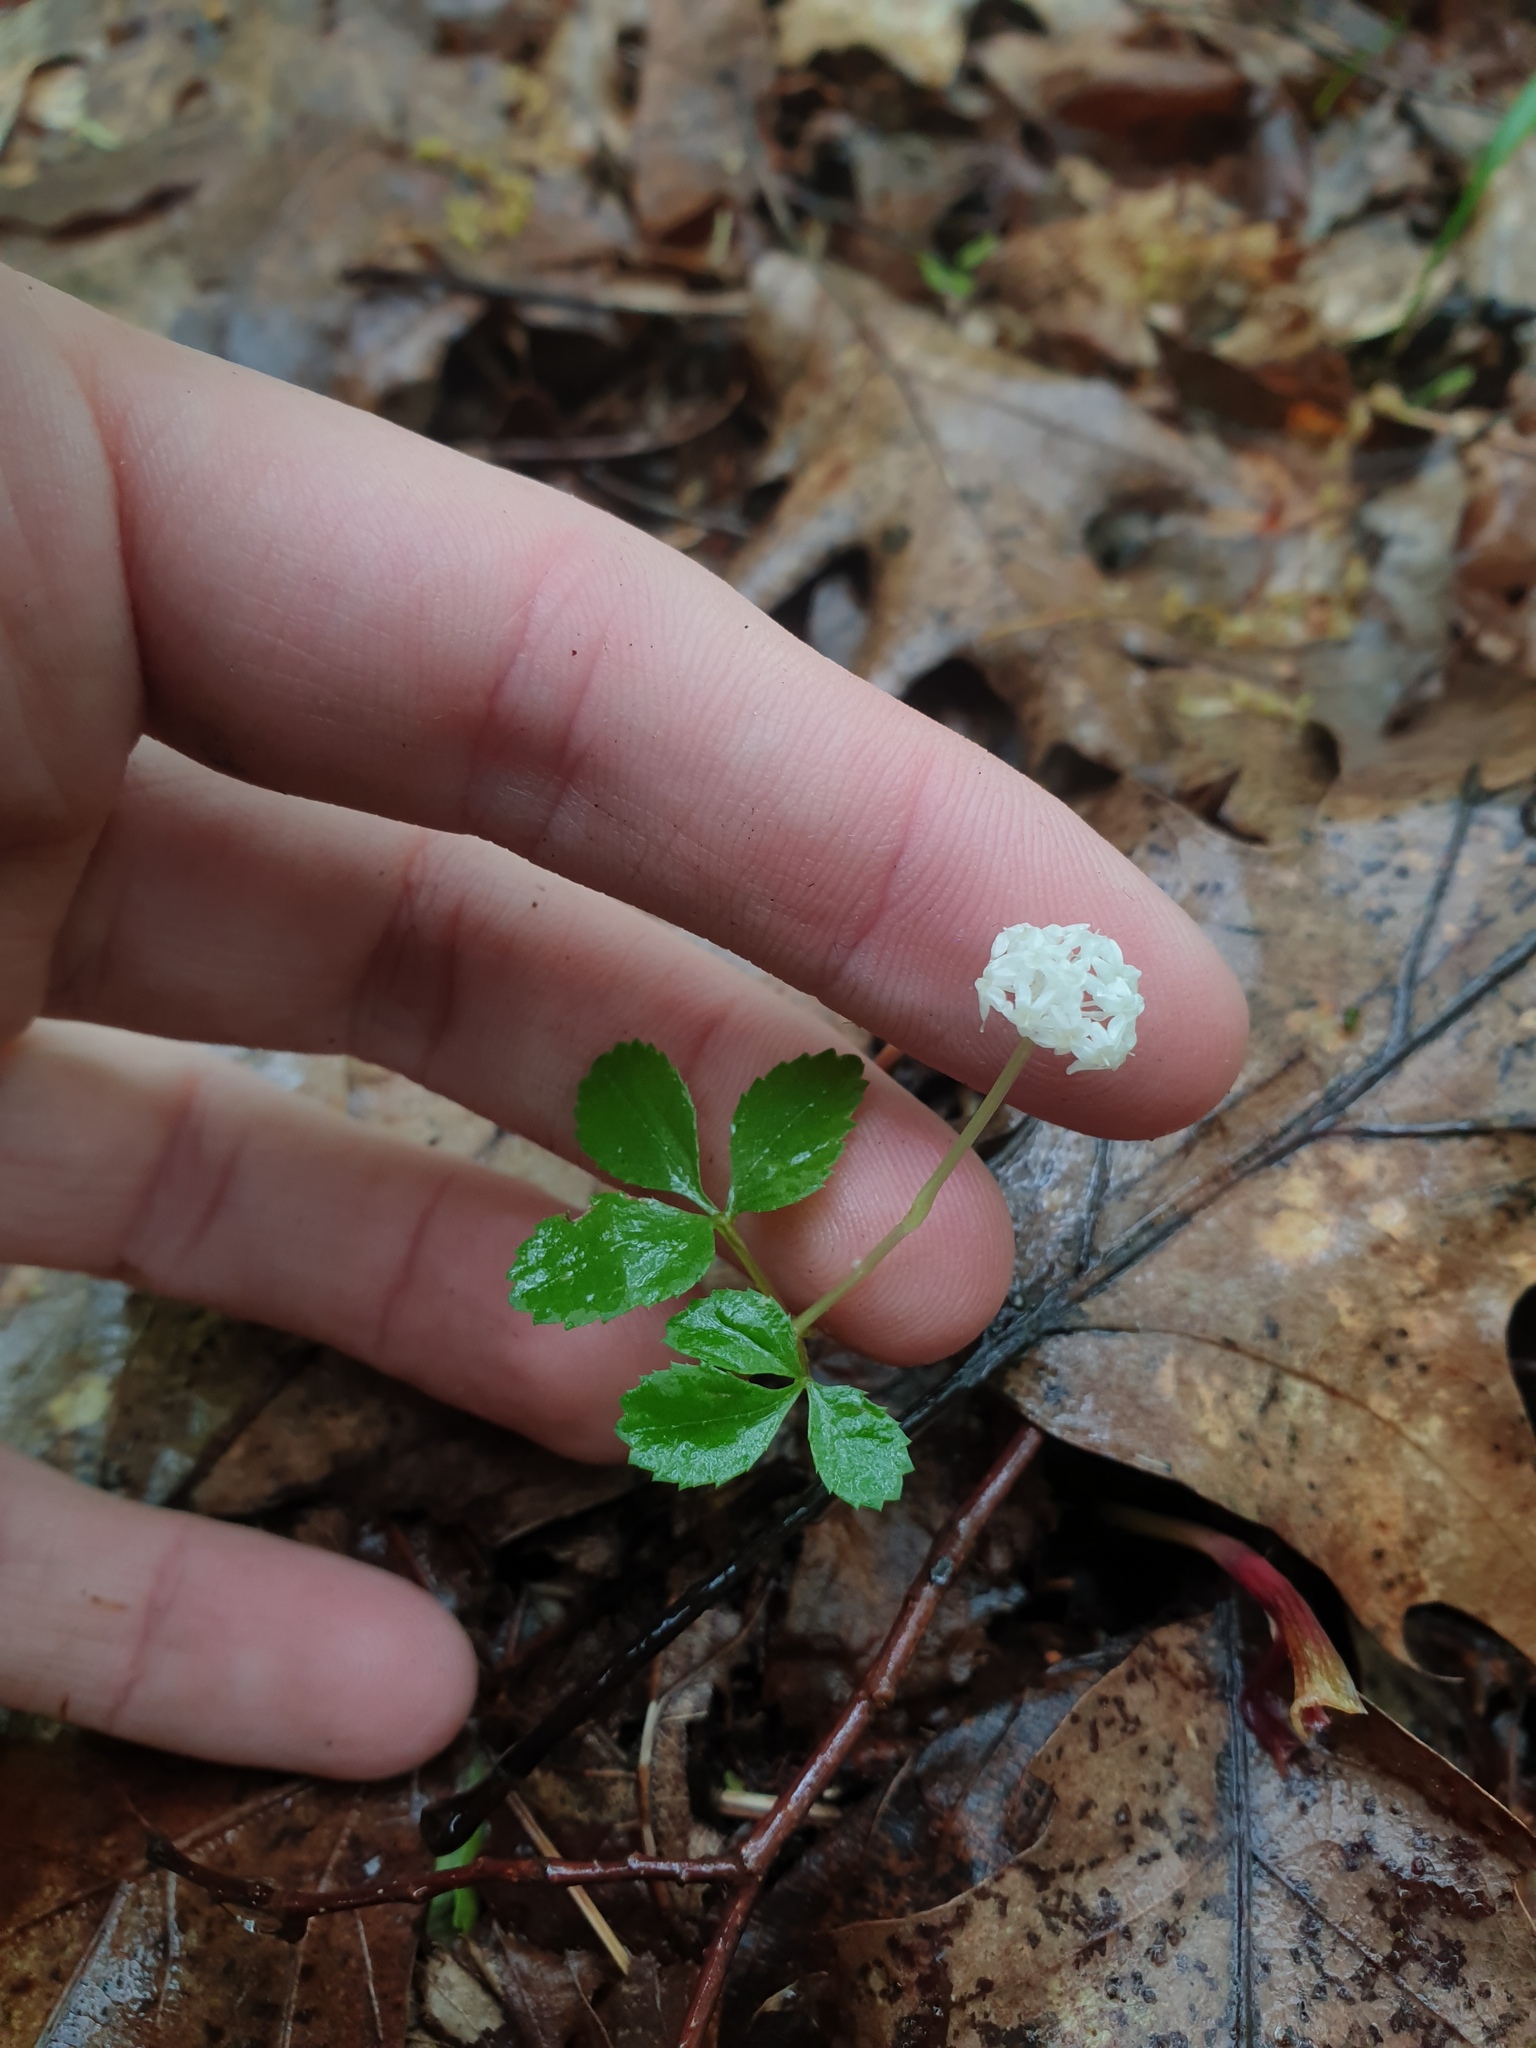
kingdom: Plantae
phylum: Tracheophyta
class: Magnoliopsida
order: Apiales
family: Araliaceae
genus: Panax
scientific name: Panax trifolius
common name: Dwarf ginseng
